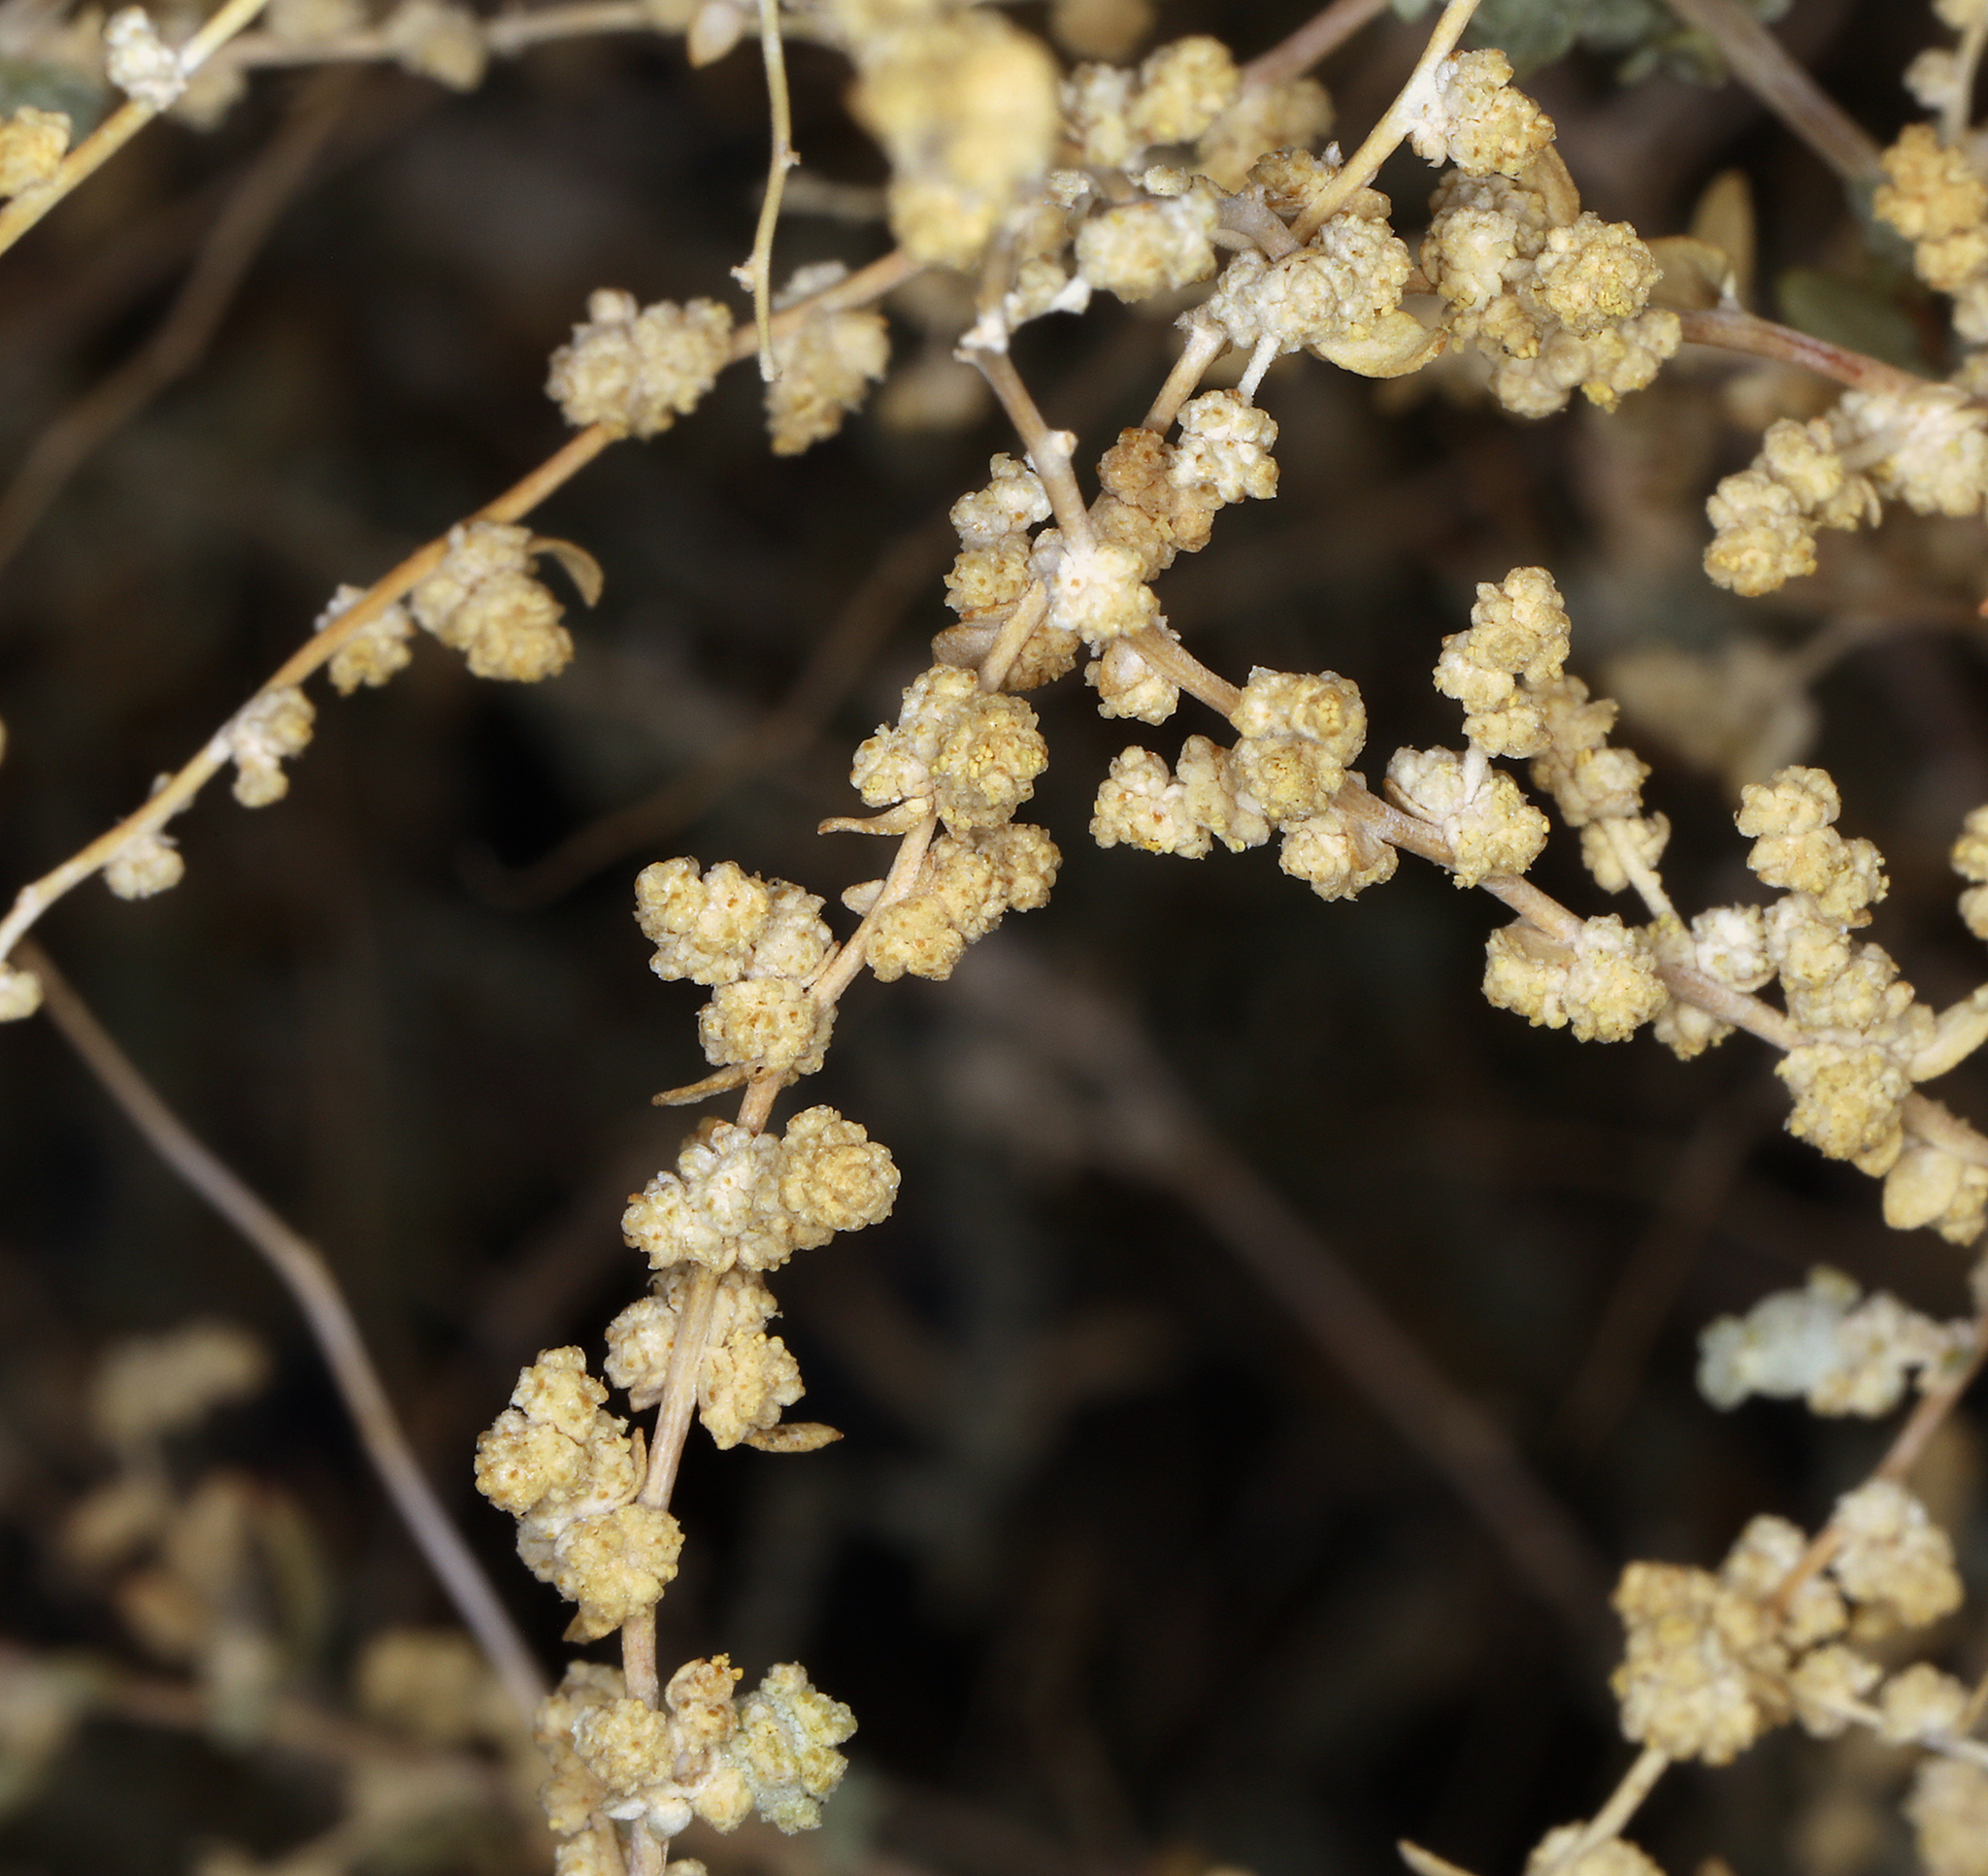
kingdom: Plantae
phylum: Tracheophyta
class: Magnoliopsida
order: Caryophyllales
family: Amaranthaceae
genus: Atriplex
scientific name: Atriplex polycarpa
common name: Desert saltbush
